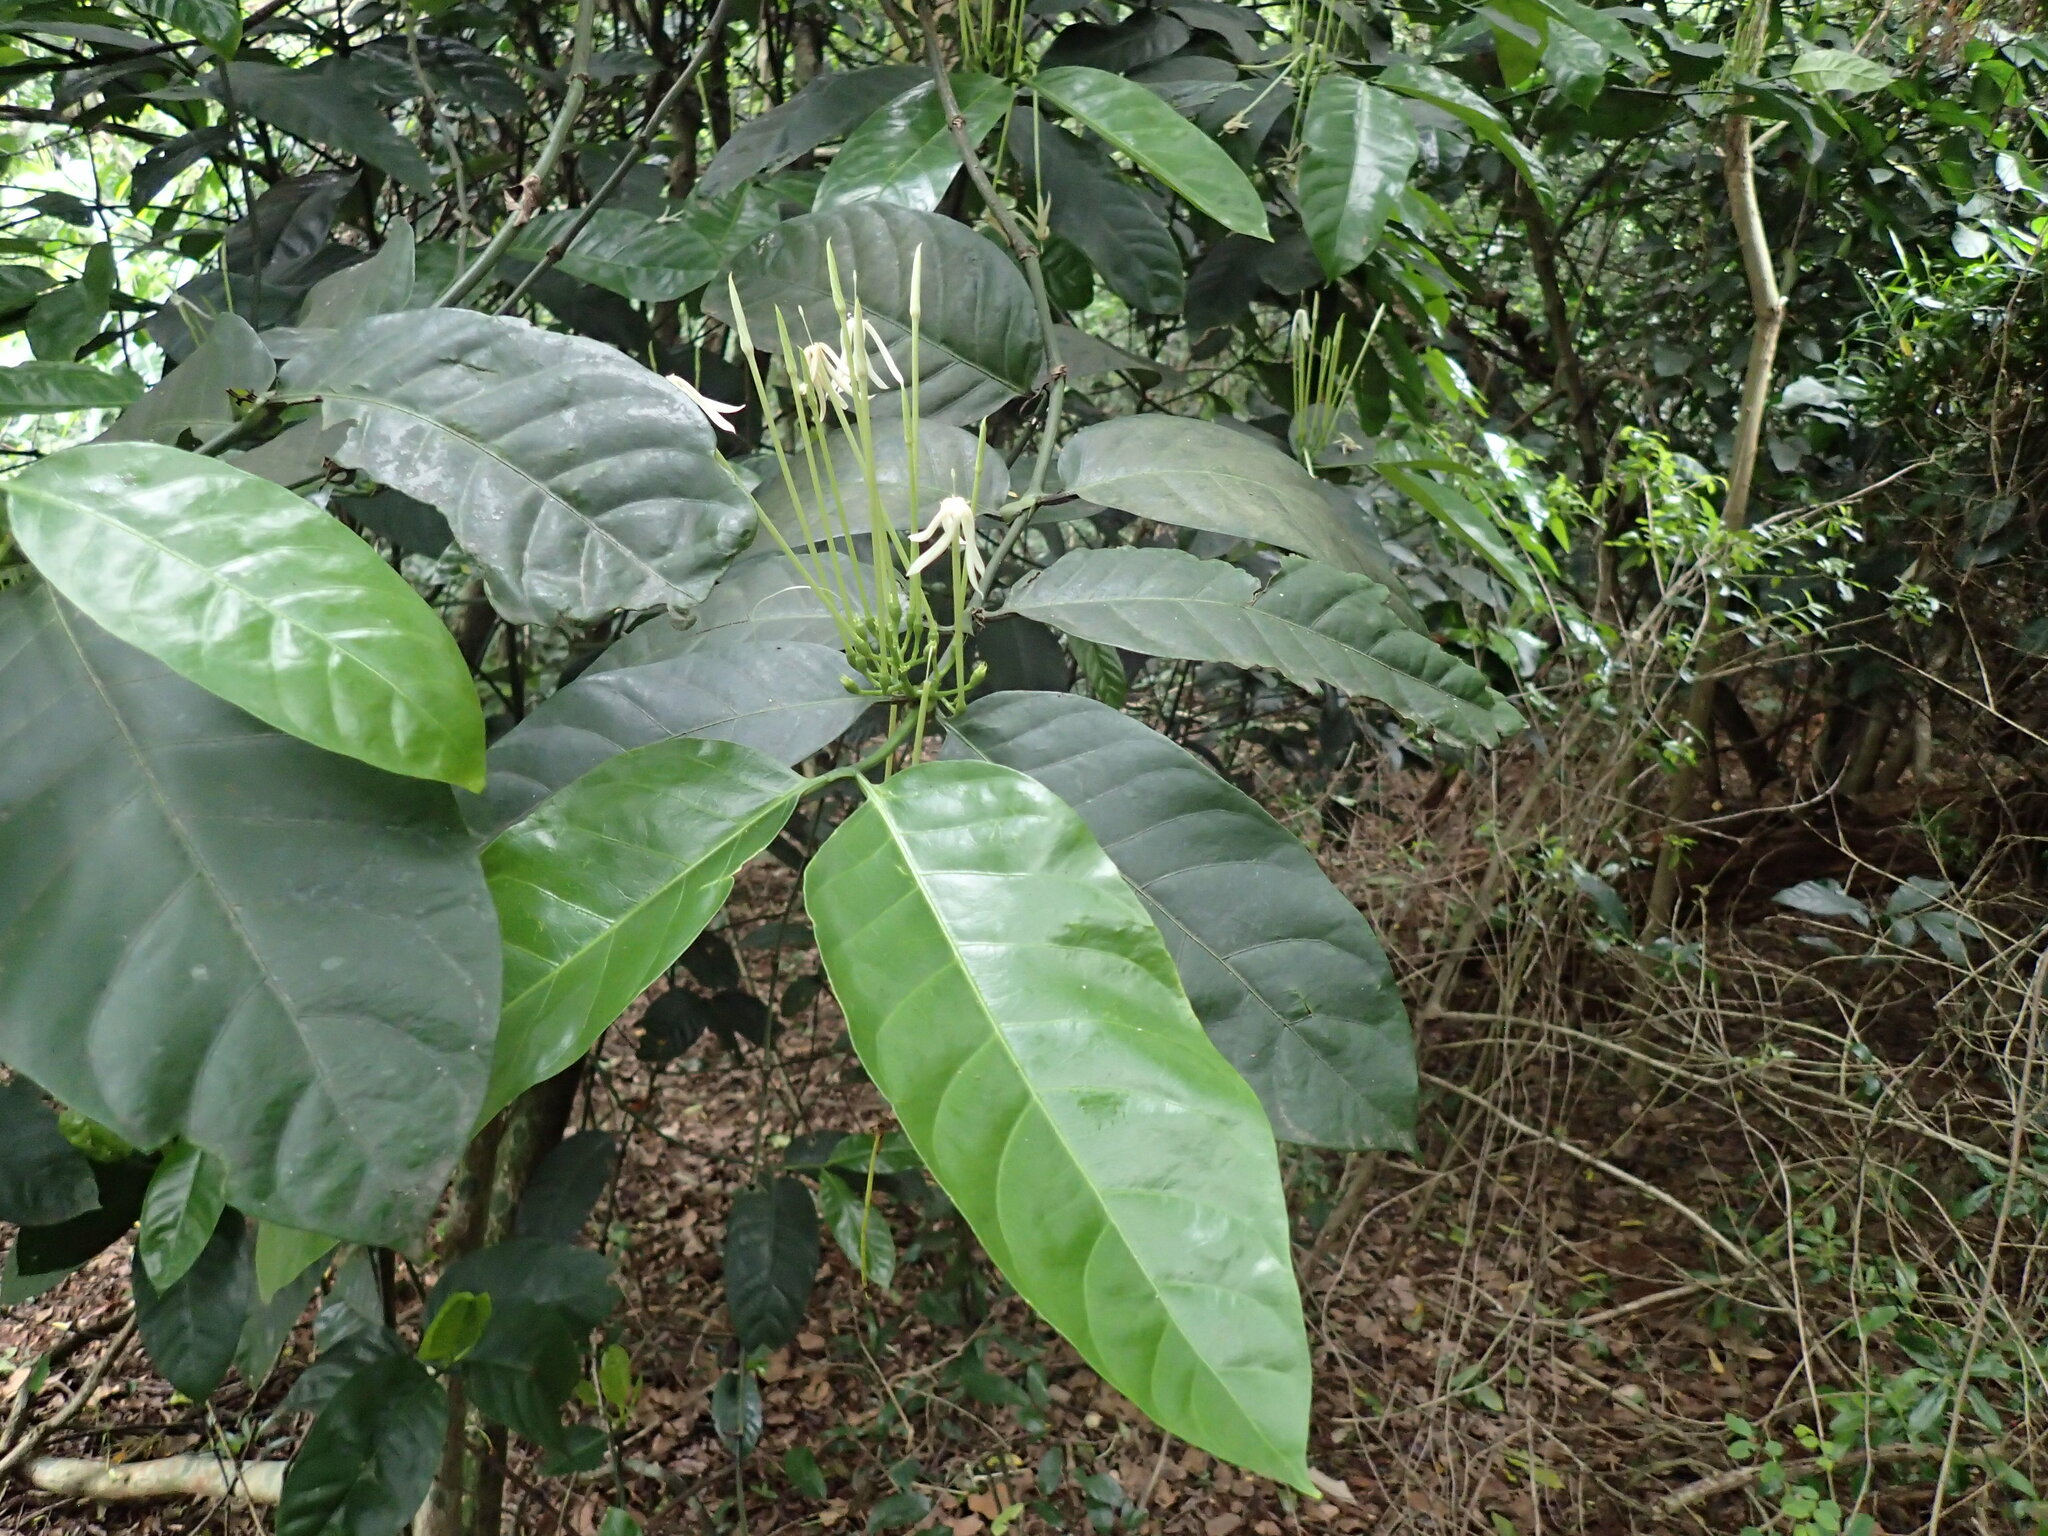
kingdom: Plantae
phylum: Tracheophyta
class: Magnoliopsida
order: Gentianales
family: Rubiaceae
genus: Oxyanthus
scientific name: Oxyanthus pyriformis
